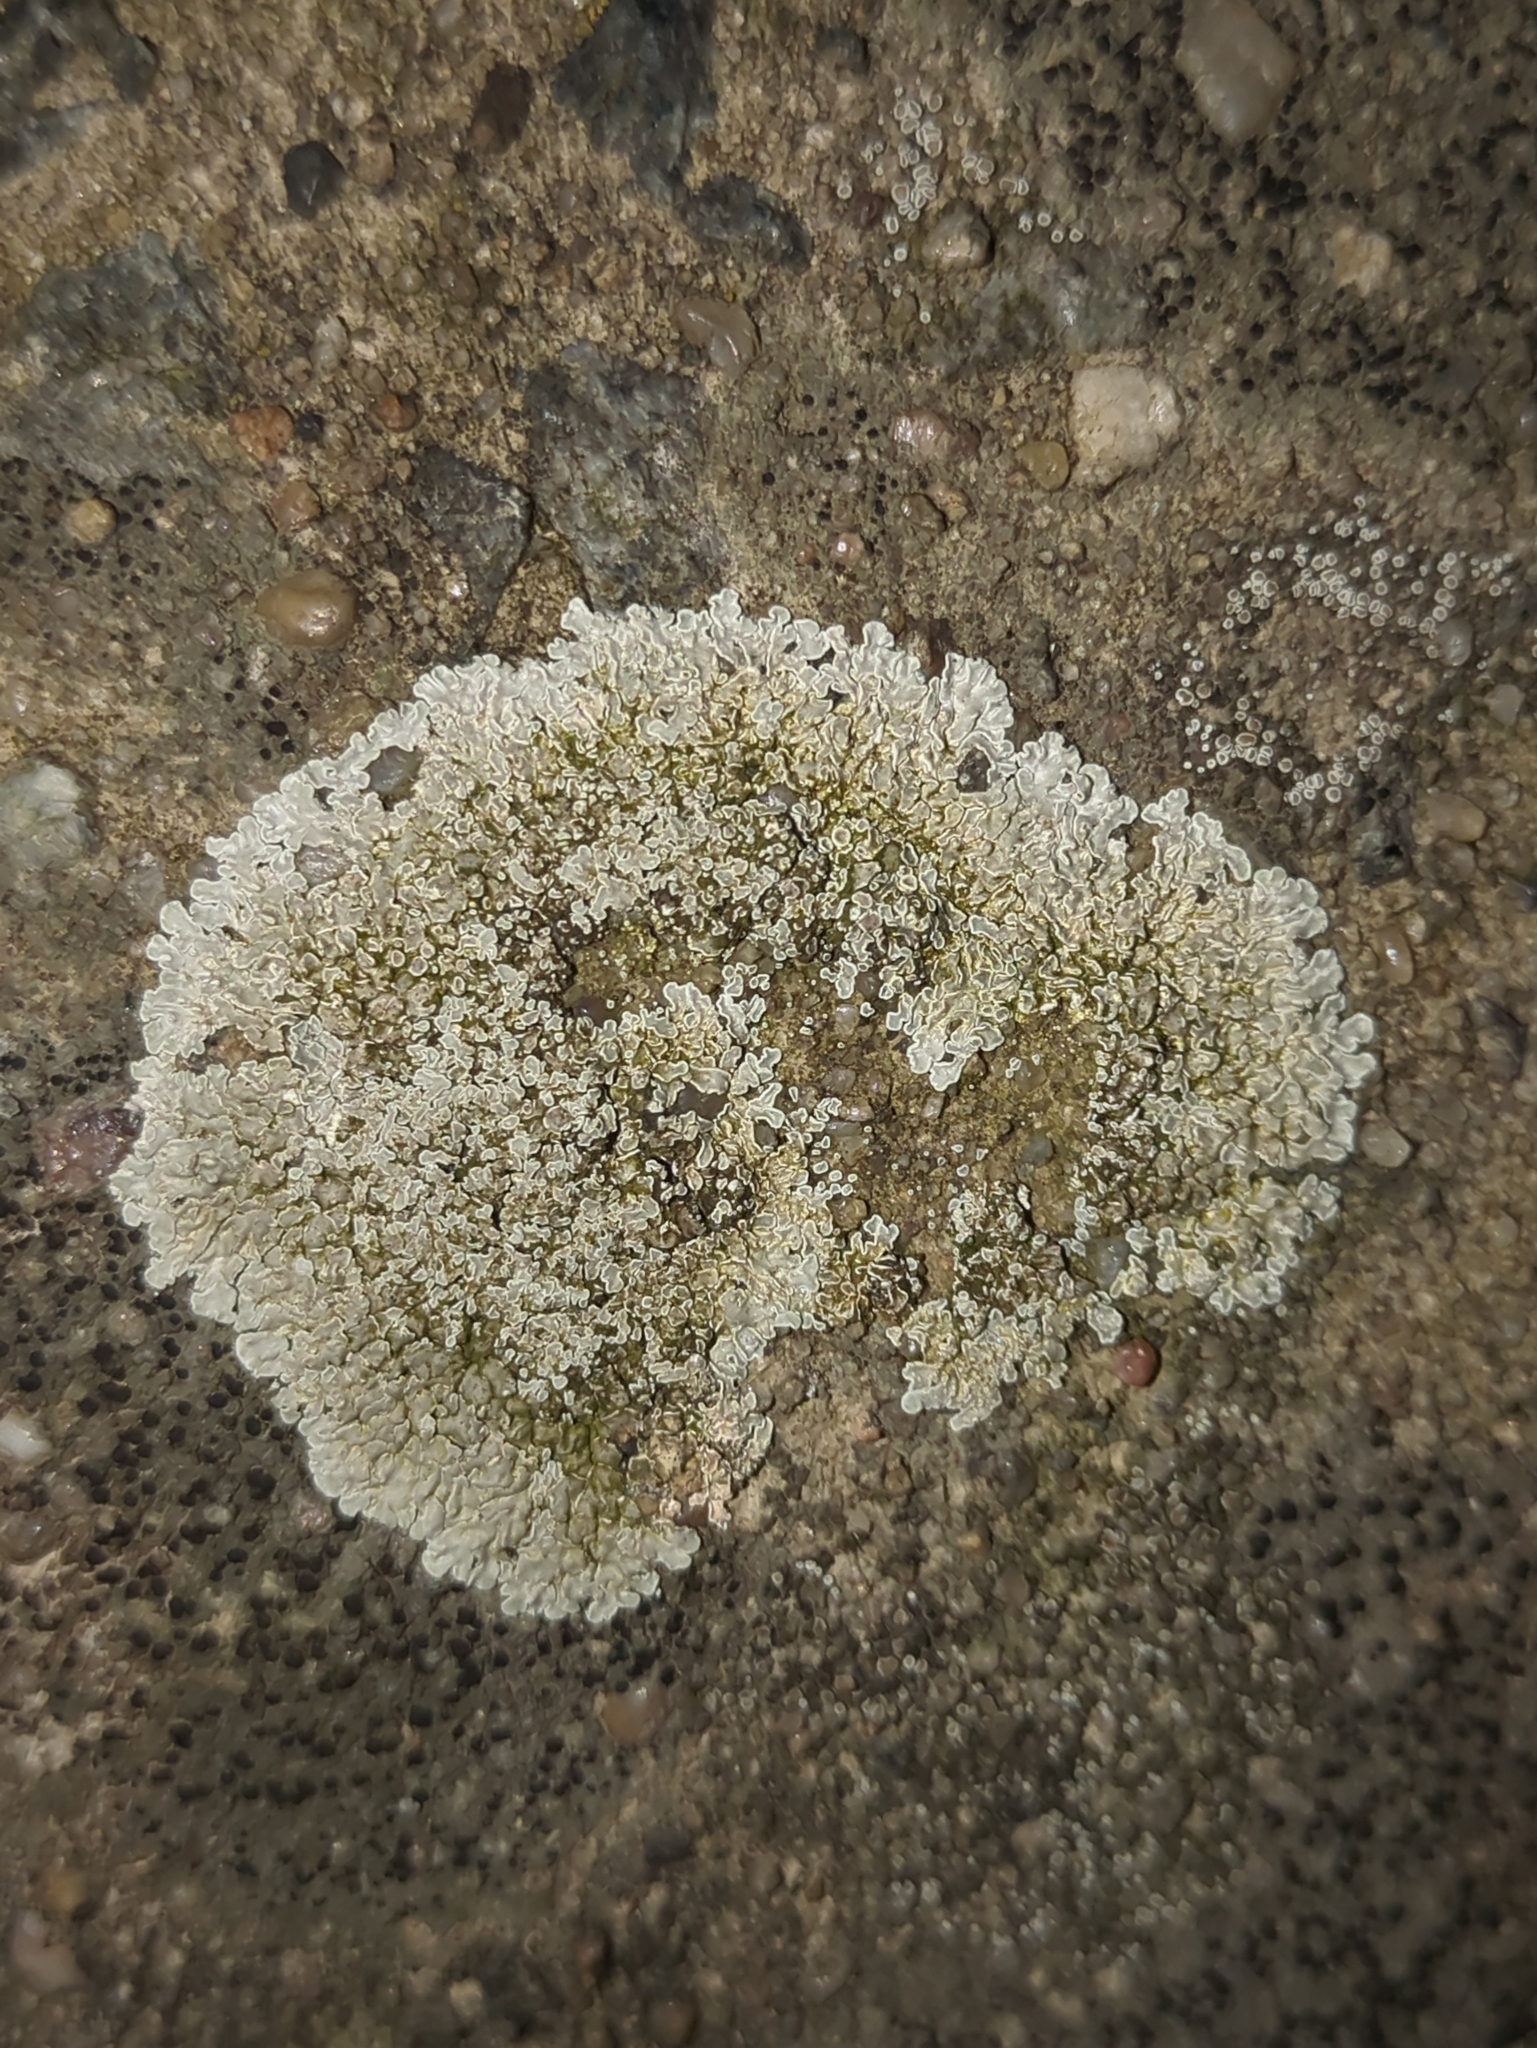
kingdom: Fungi
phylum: Ascomycota
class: Lecanoromycetes
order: Lecanorales
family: Lecanoraceae
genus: Protoparmeliopsis
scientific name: Protoparmeliopsis muralis
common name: Stonewall rim lichen
